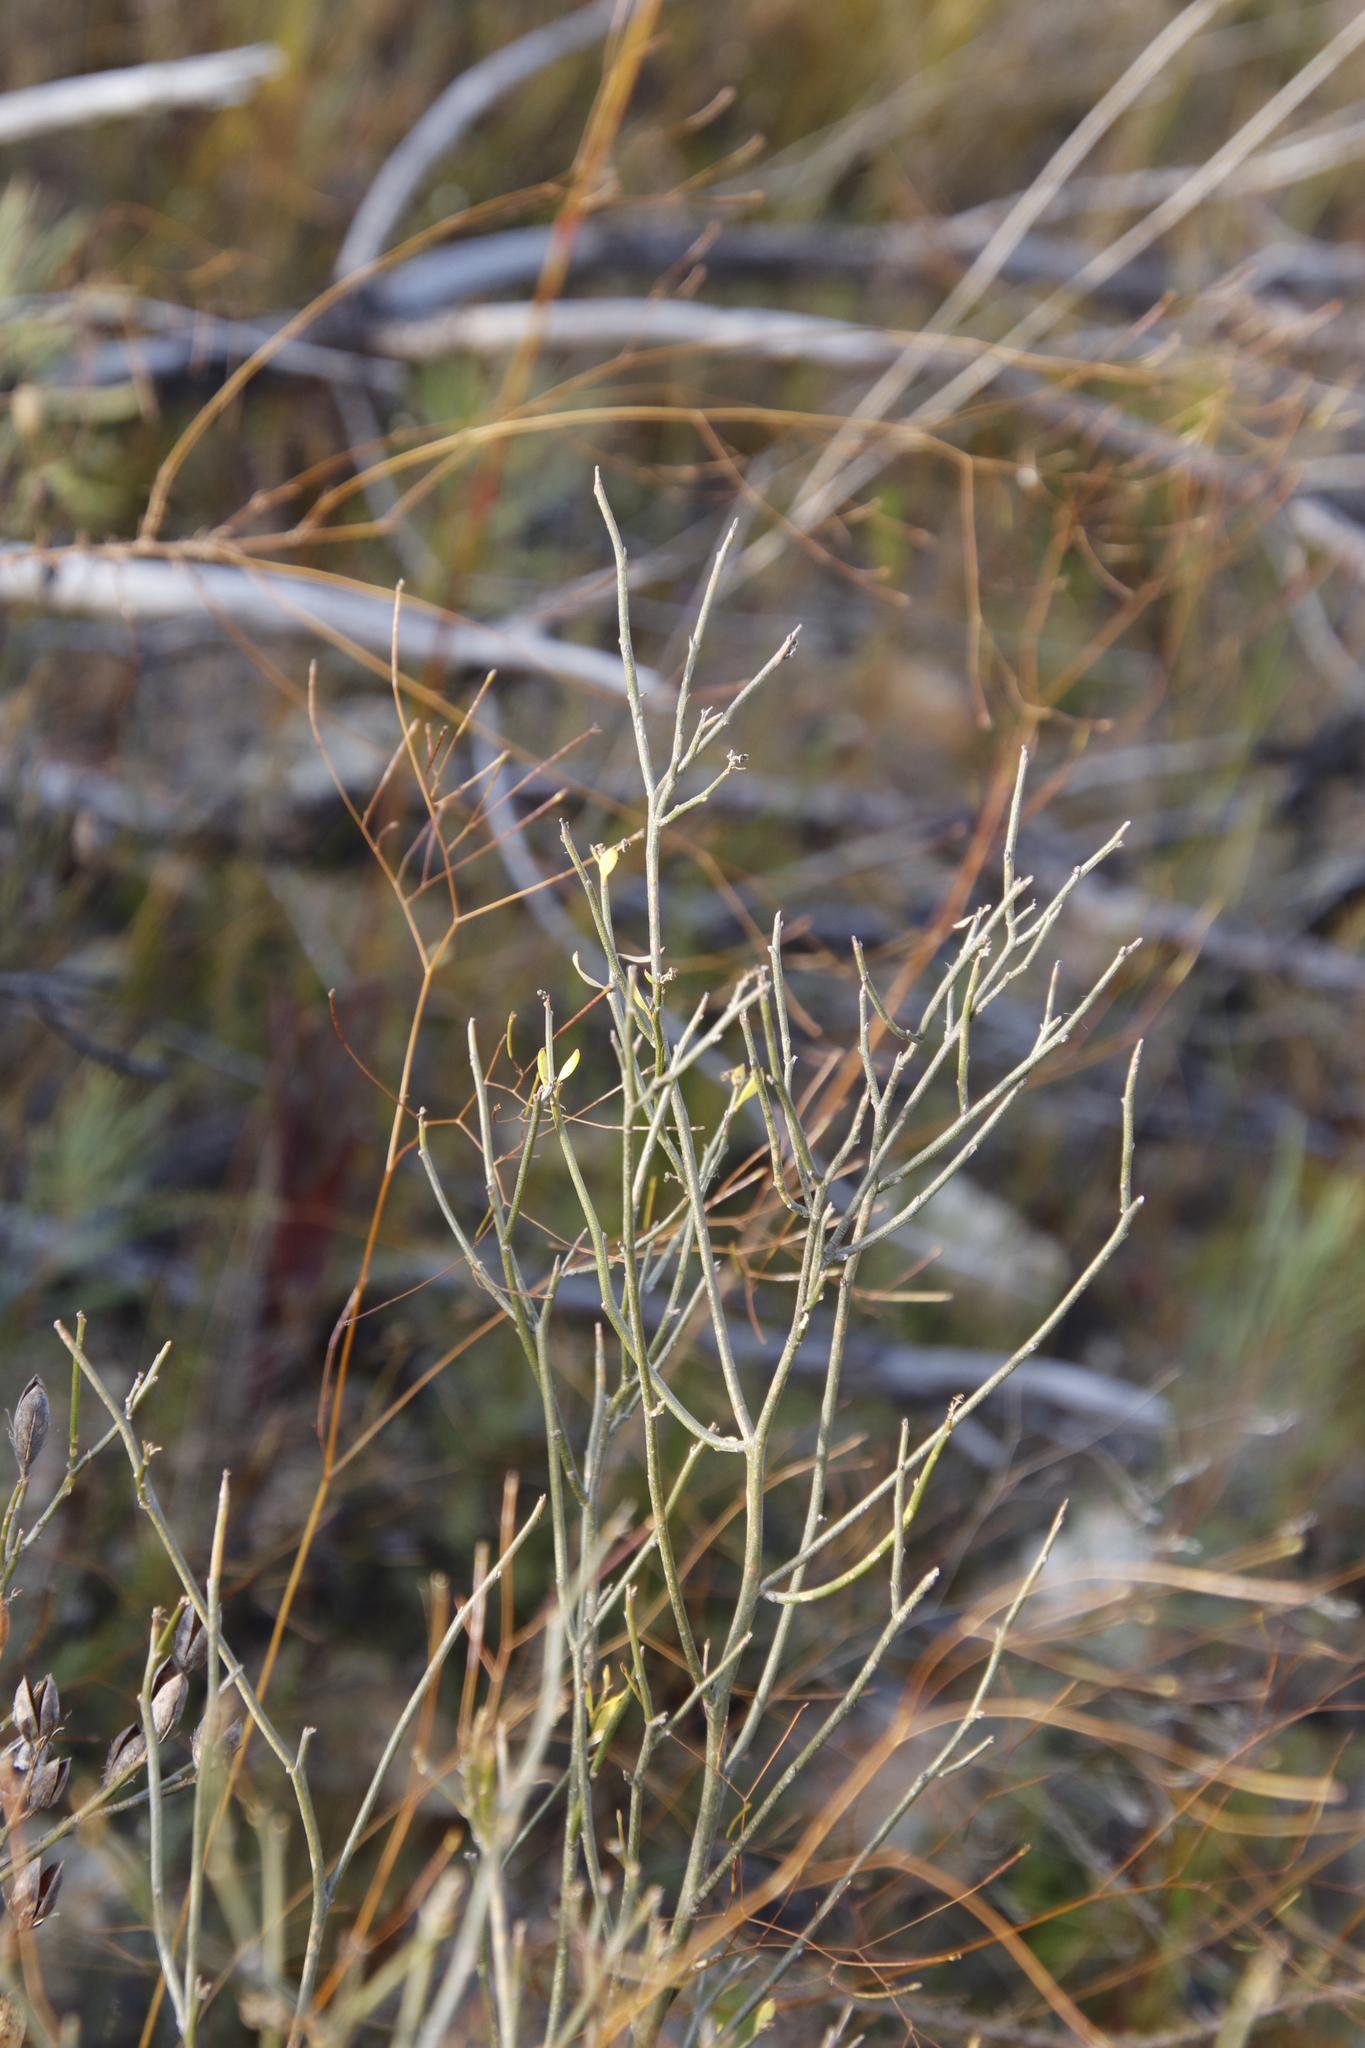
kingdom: Plantae
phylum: Tracheophyta
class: Magnoliopsida
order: Solanales
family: Montiniaceae
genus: Montinia
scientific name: Montinia caryophyllacea
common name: Wild clove-bush
